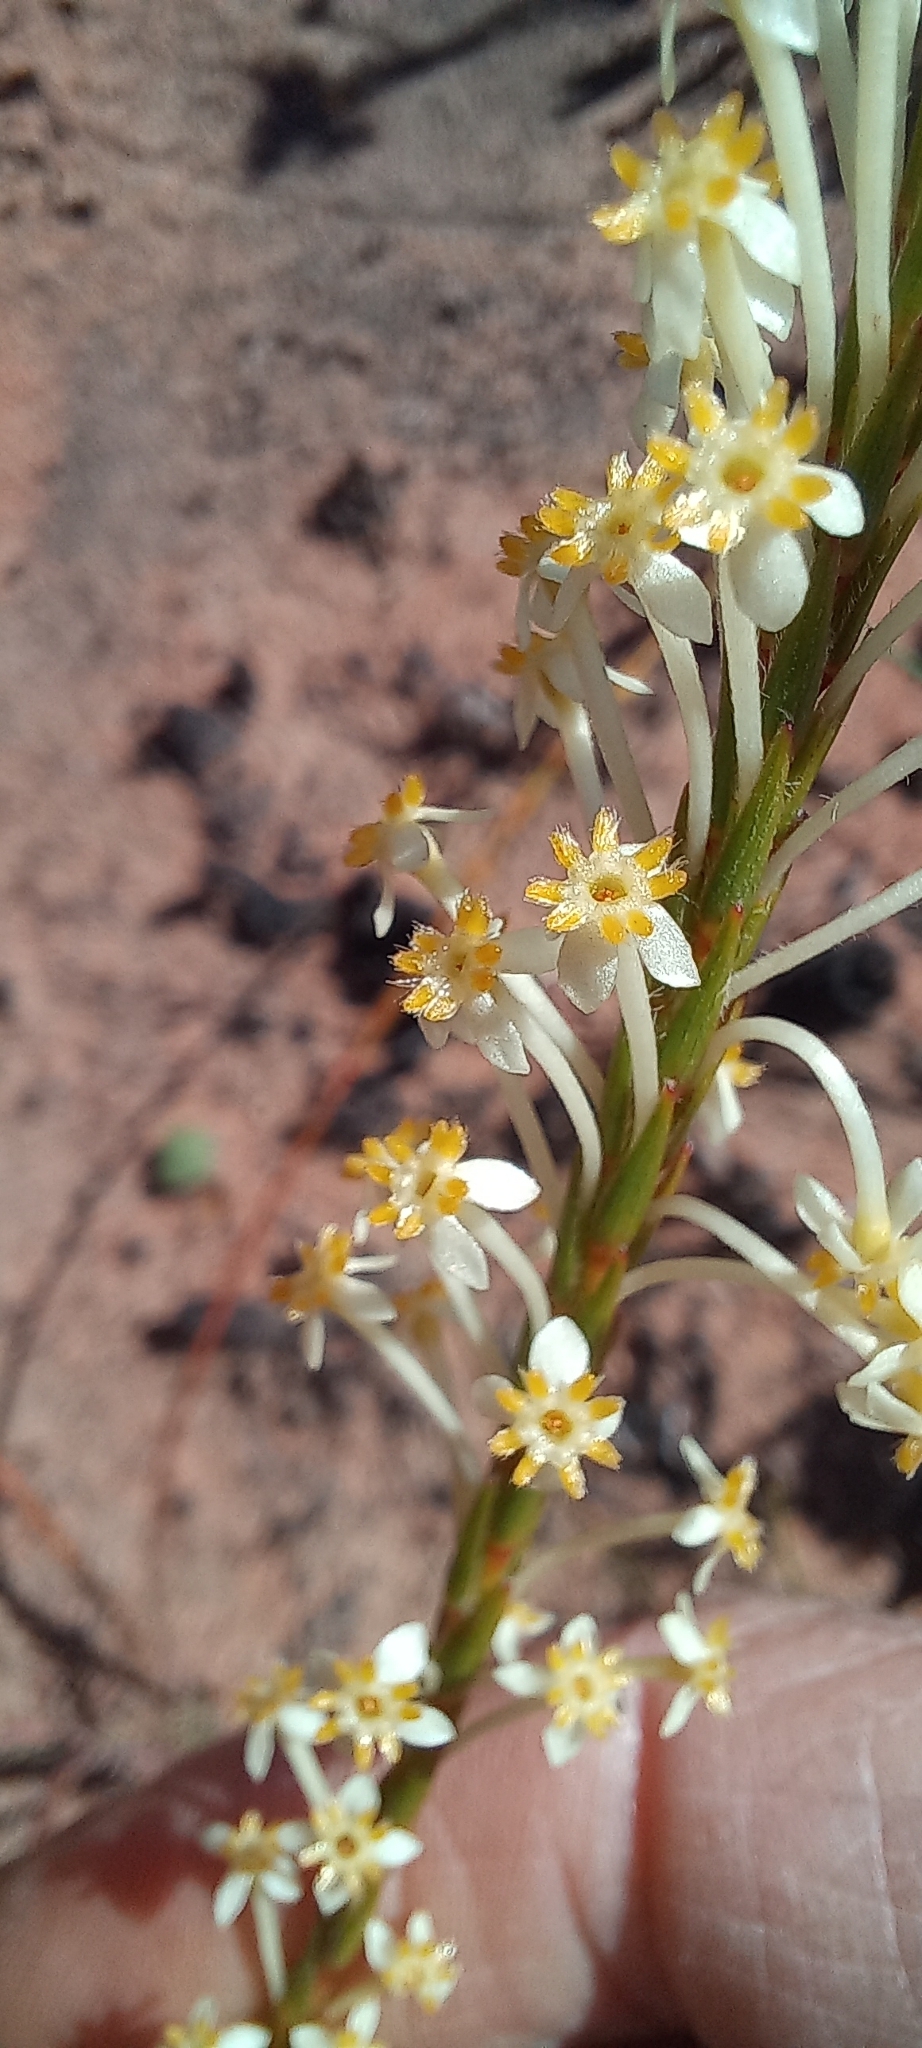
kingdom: Plantae
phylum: Tracheophyta
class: Magnoliopsida
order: Malvales
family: Thymelaeaceae
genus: Struthiola
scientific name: Struthiola ciliata
